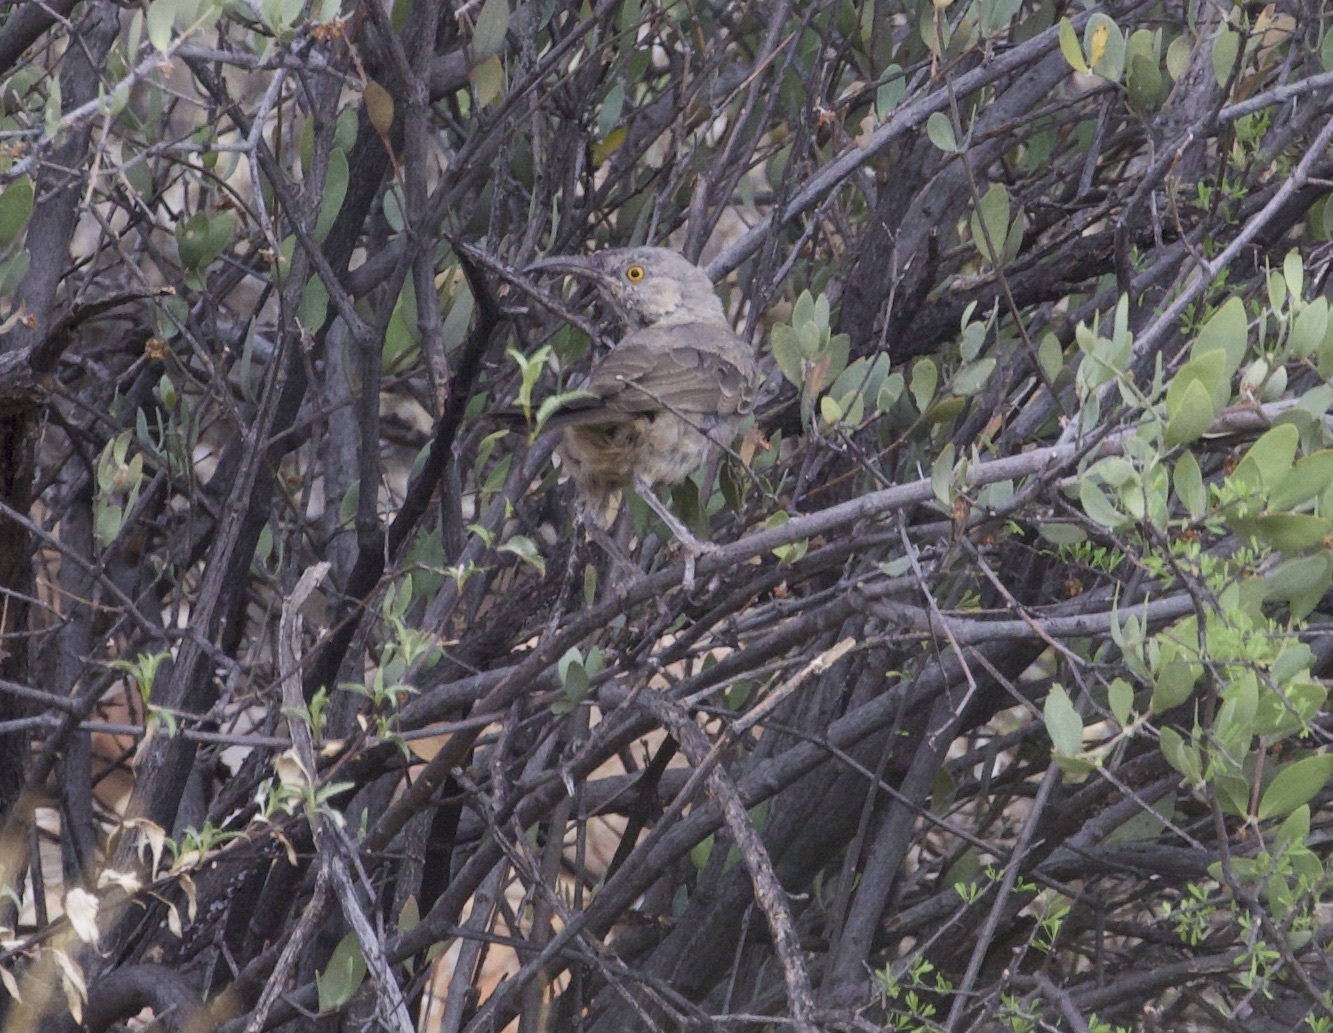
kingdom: Animalia
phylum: Chordata
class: Aves
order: Passeriformes
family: Mimidae
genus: Toxostoma
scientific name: Toxostoma curvirostre
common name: Curve-billed thrasher
